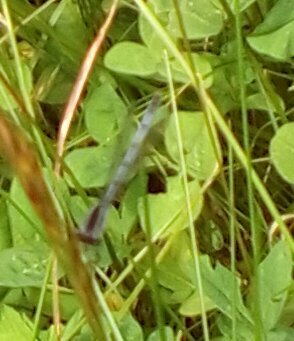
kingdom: Animalia
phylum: Arthropoda
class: Insecta
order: Odonata
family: Coenagrionidae
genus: Ischnura
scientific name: Ischnura verticalis
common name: Eastern forktail
